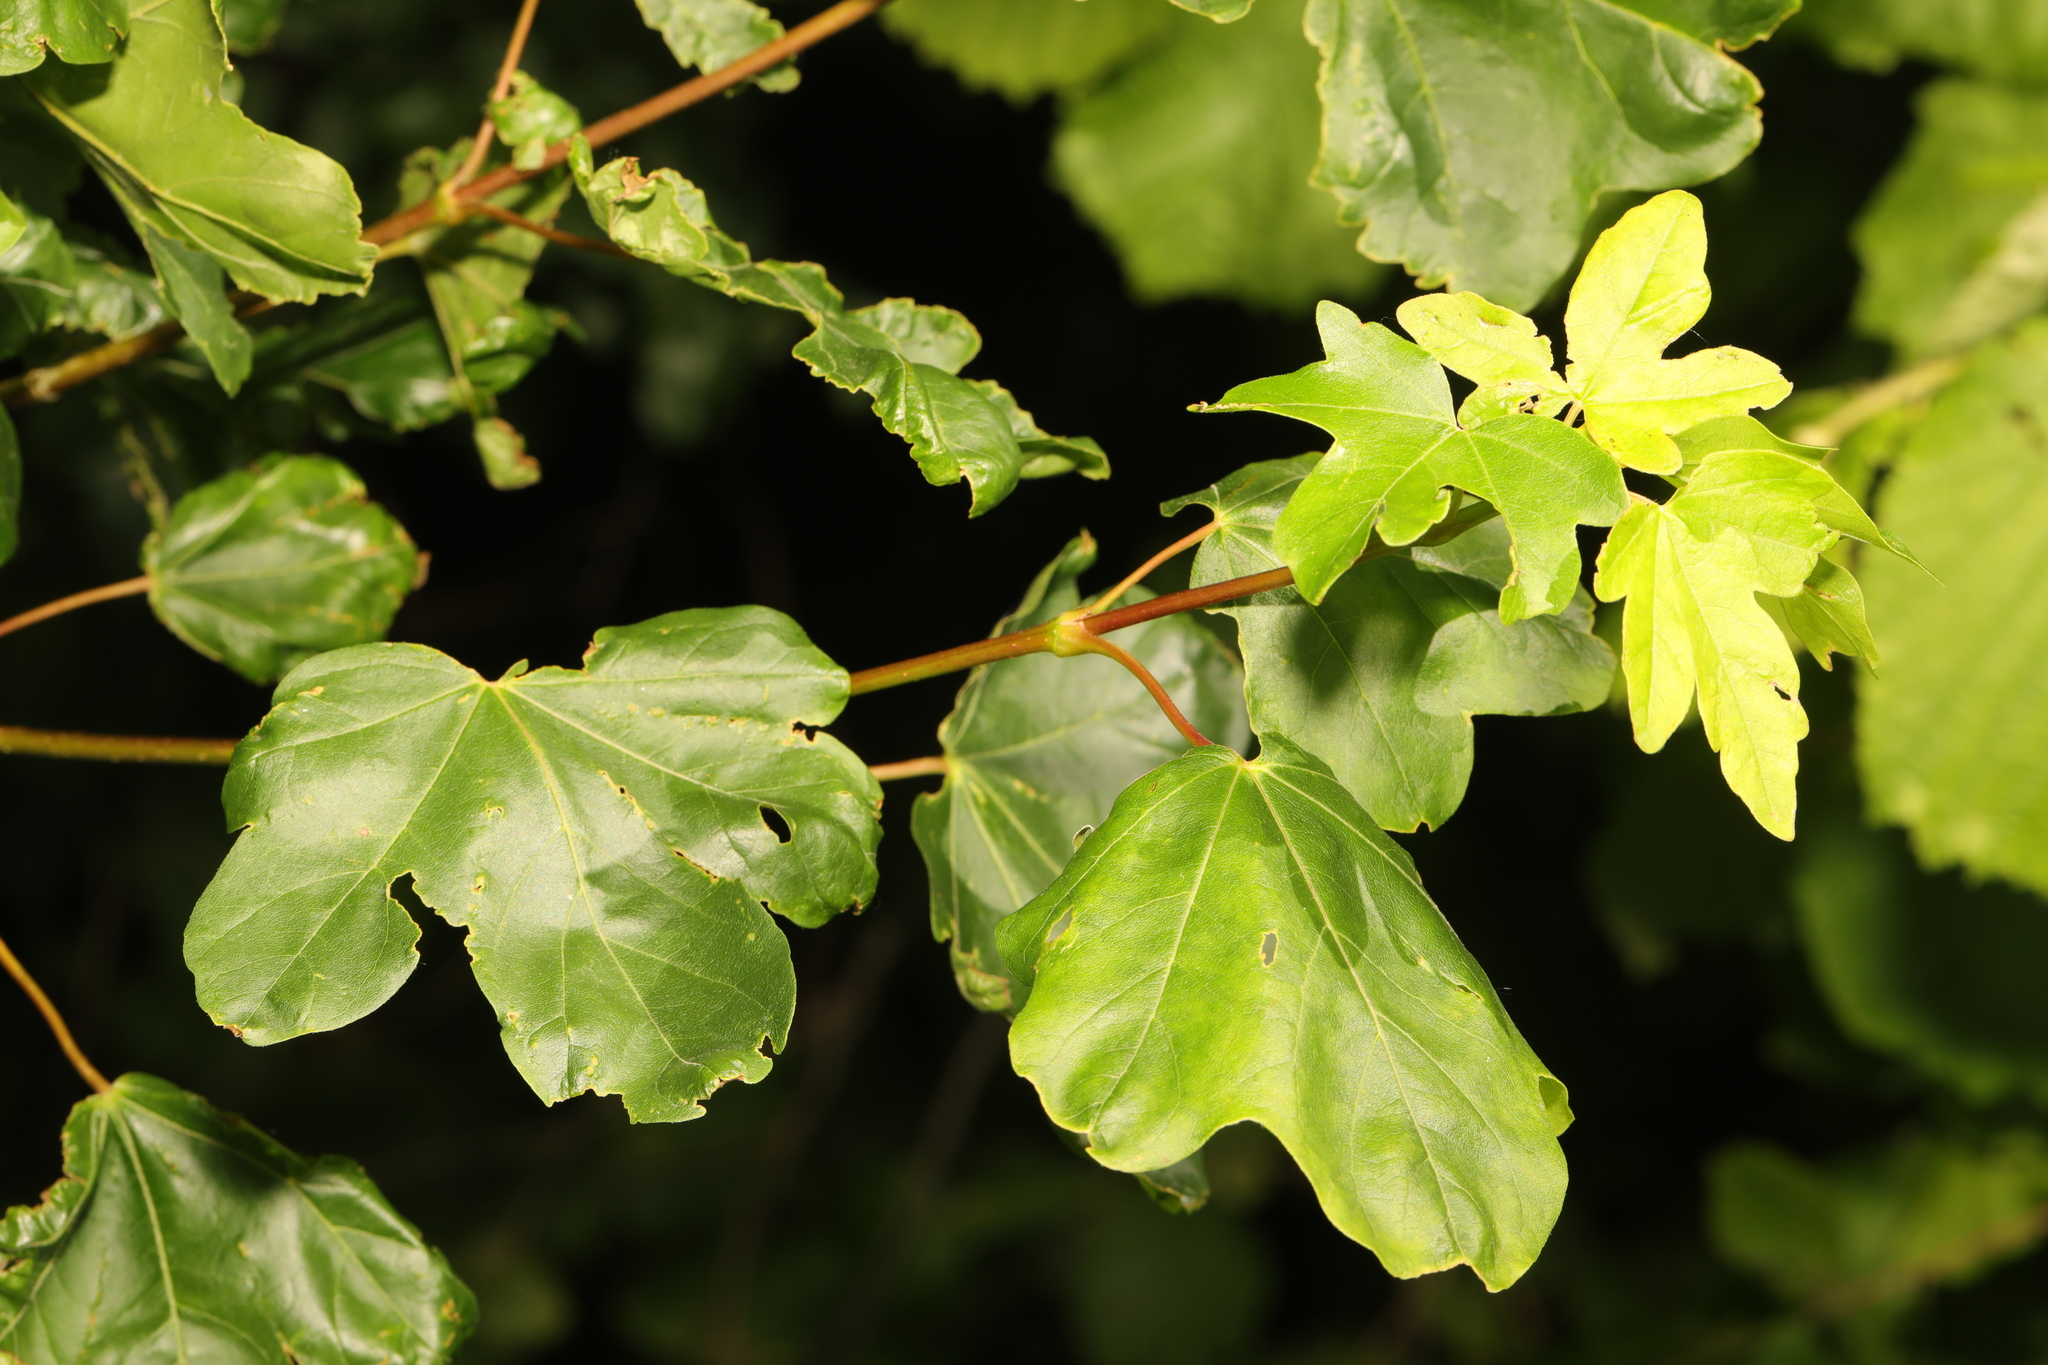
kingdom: Plantae
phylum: Tracheophyta
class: Magnoliopsida
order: Sapindales
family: Sapindaceae
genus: Acer
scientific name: Acer campestre
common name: Field maple
